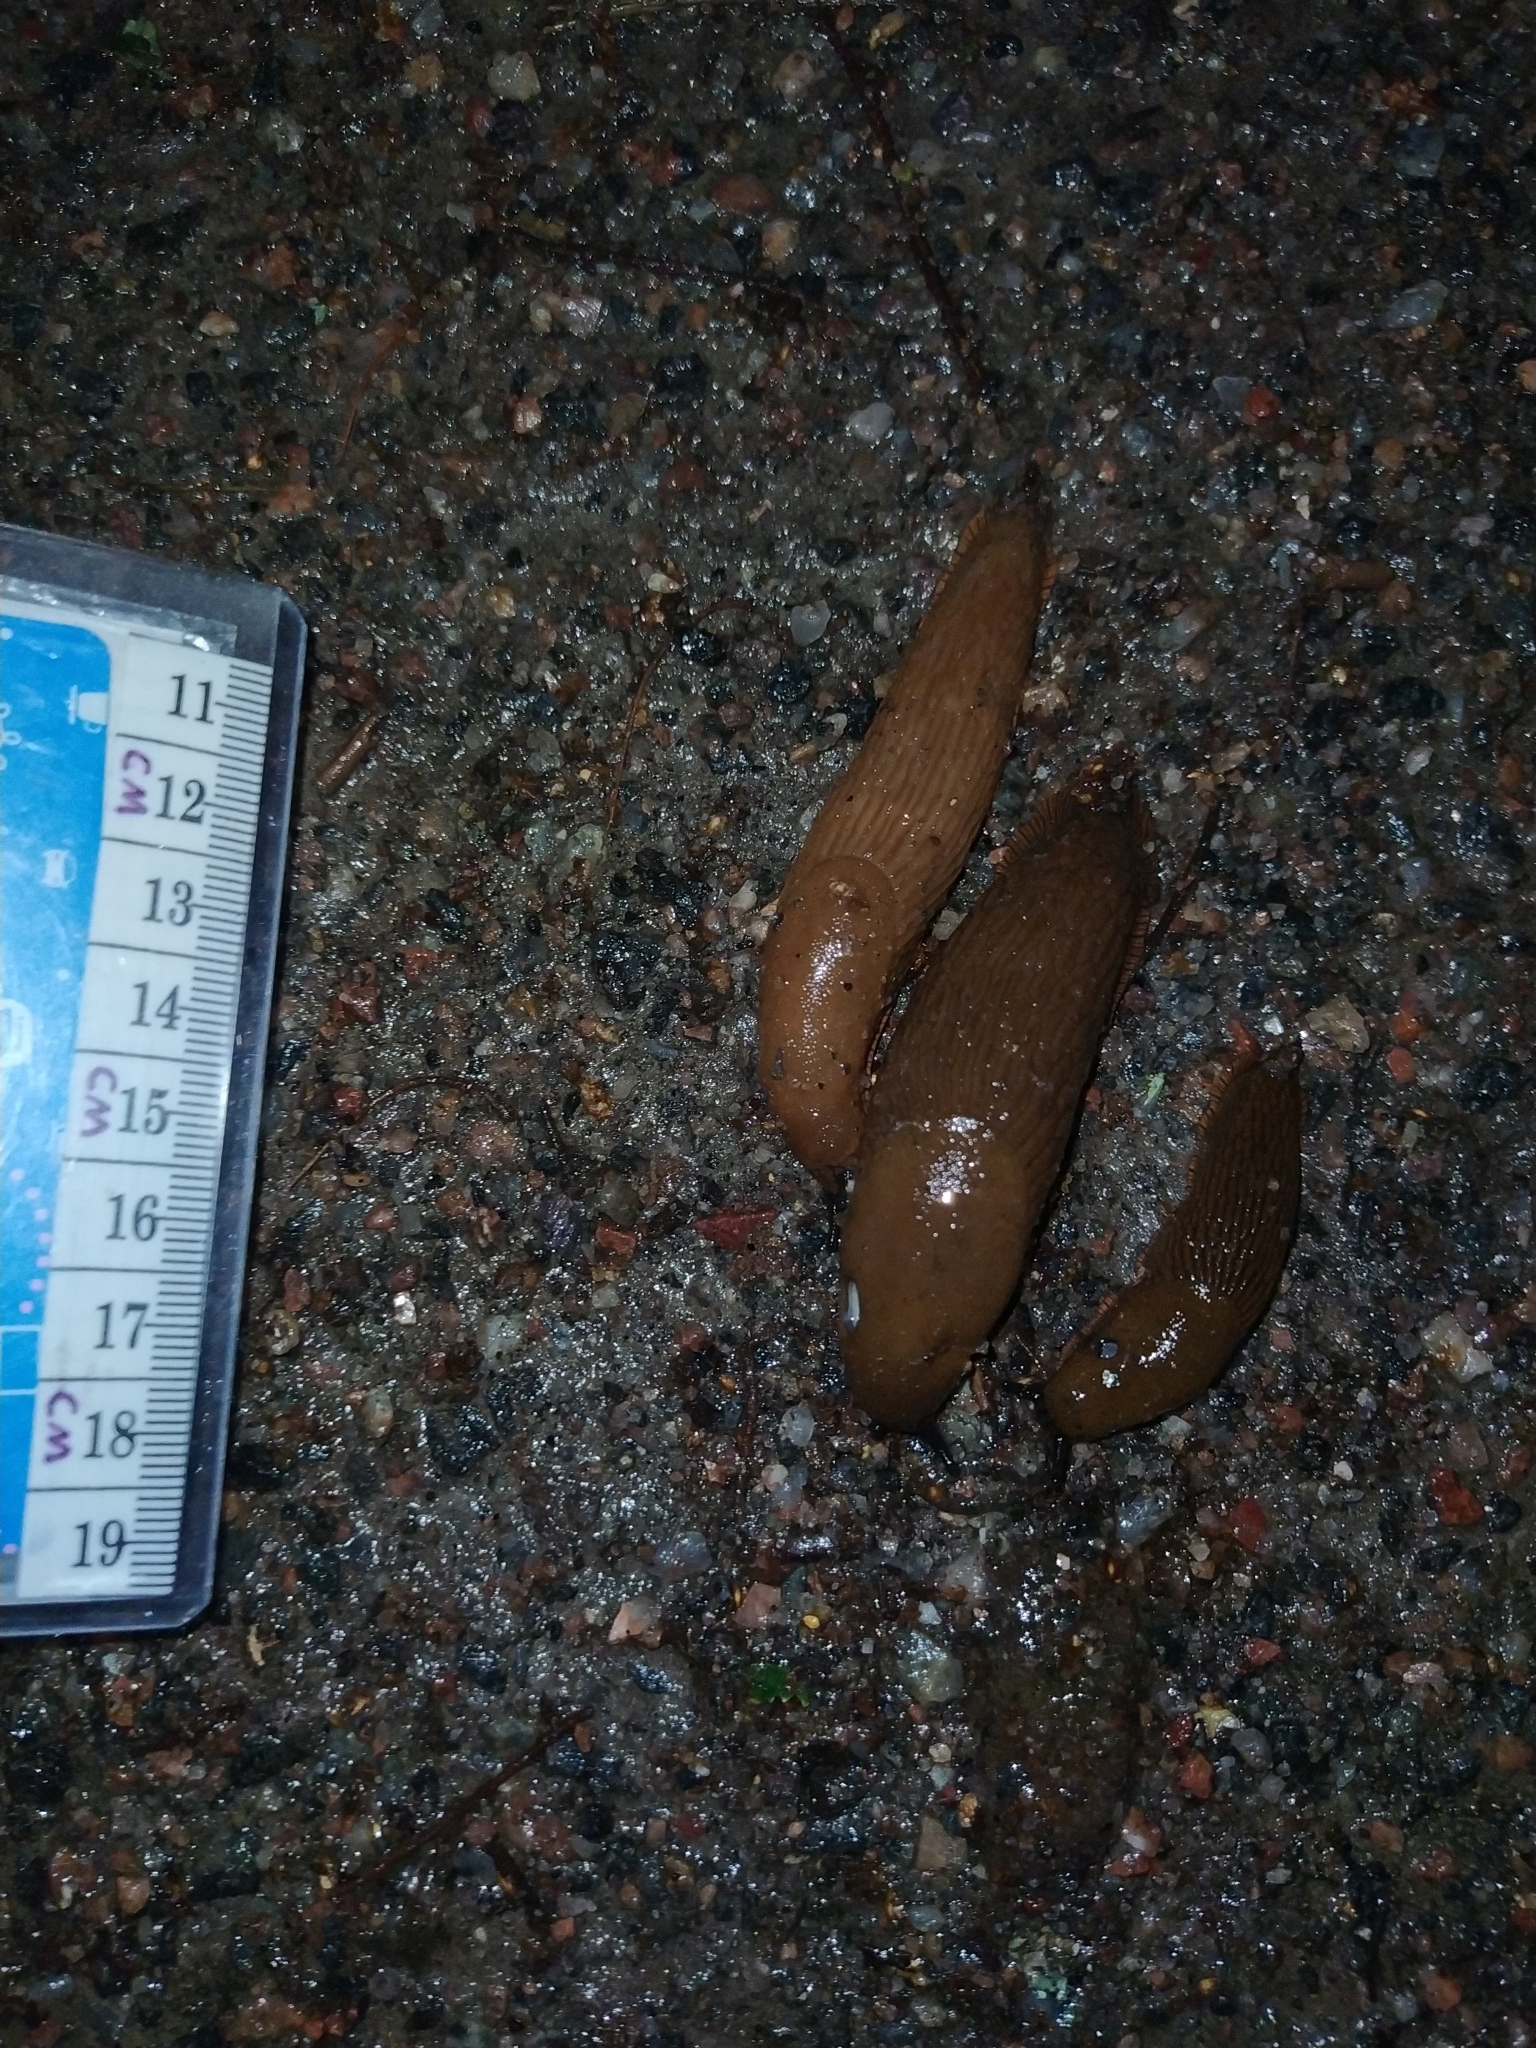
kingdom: Animalia
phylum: Mollusca
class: Gastropoda
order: Stylommatophora
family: Arionidae
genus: Arion
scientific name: Arion vulgaris
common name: Lusitanian slug
